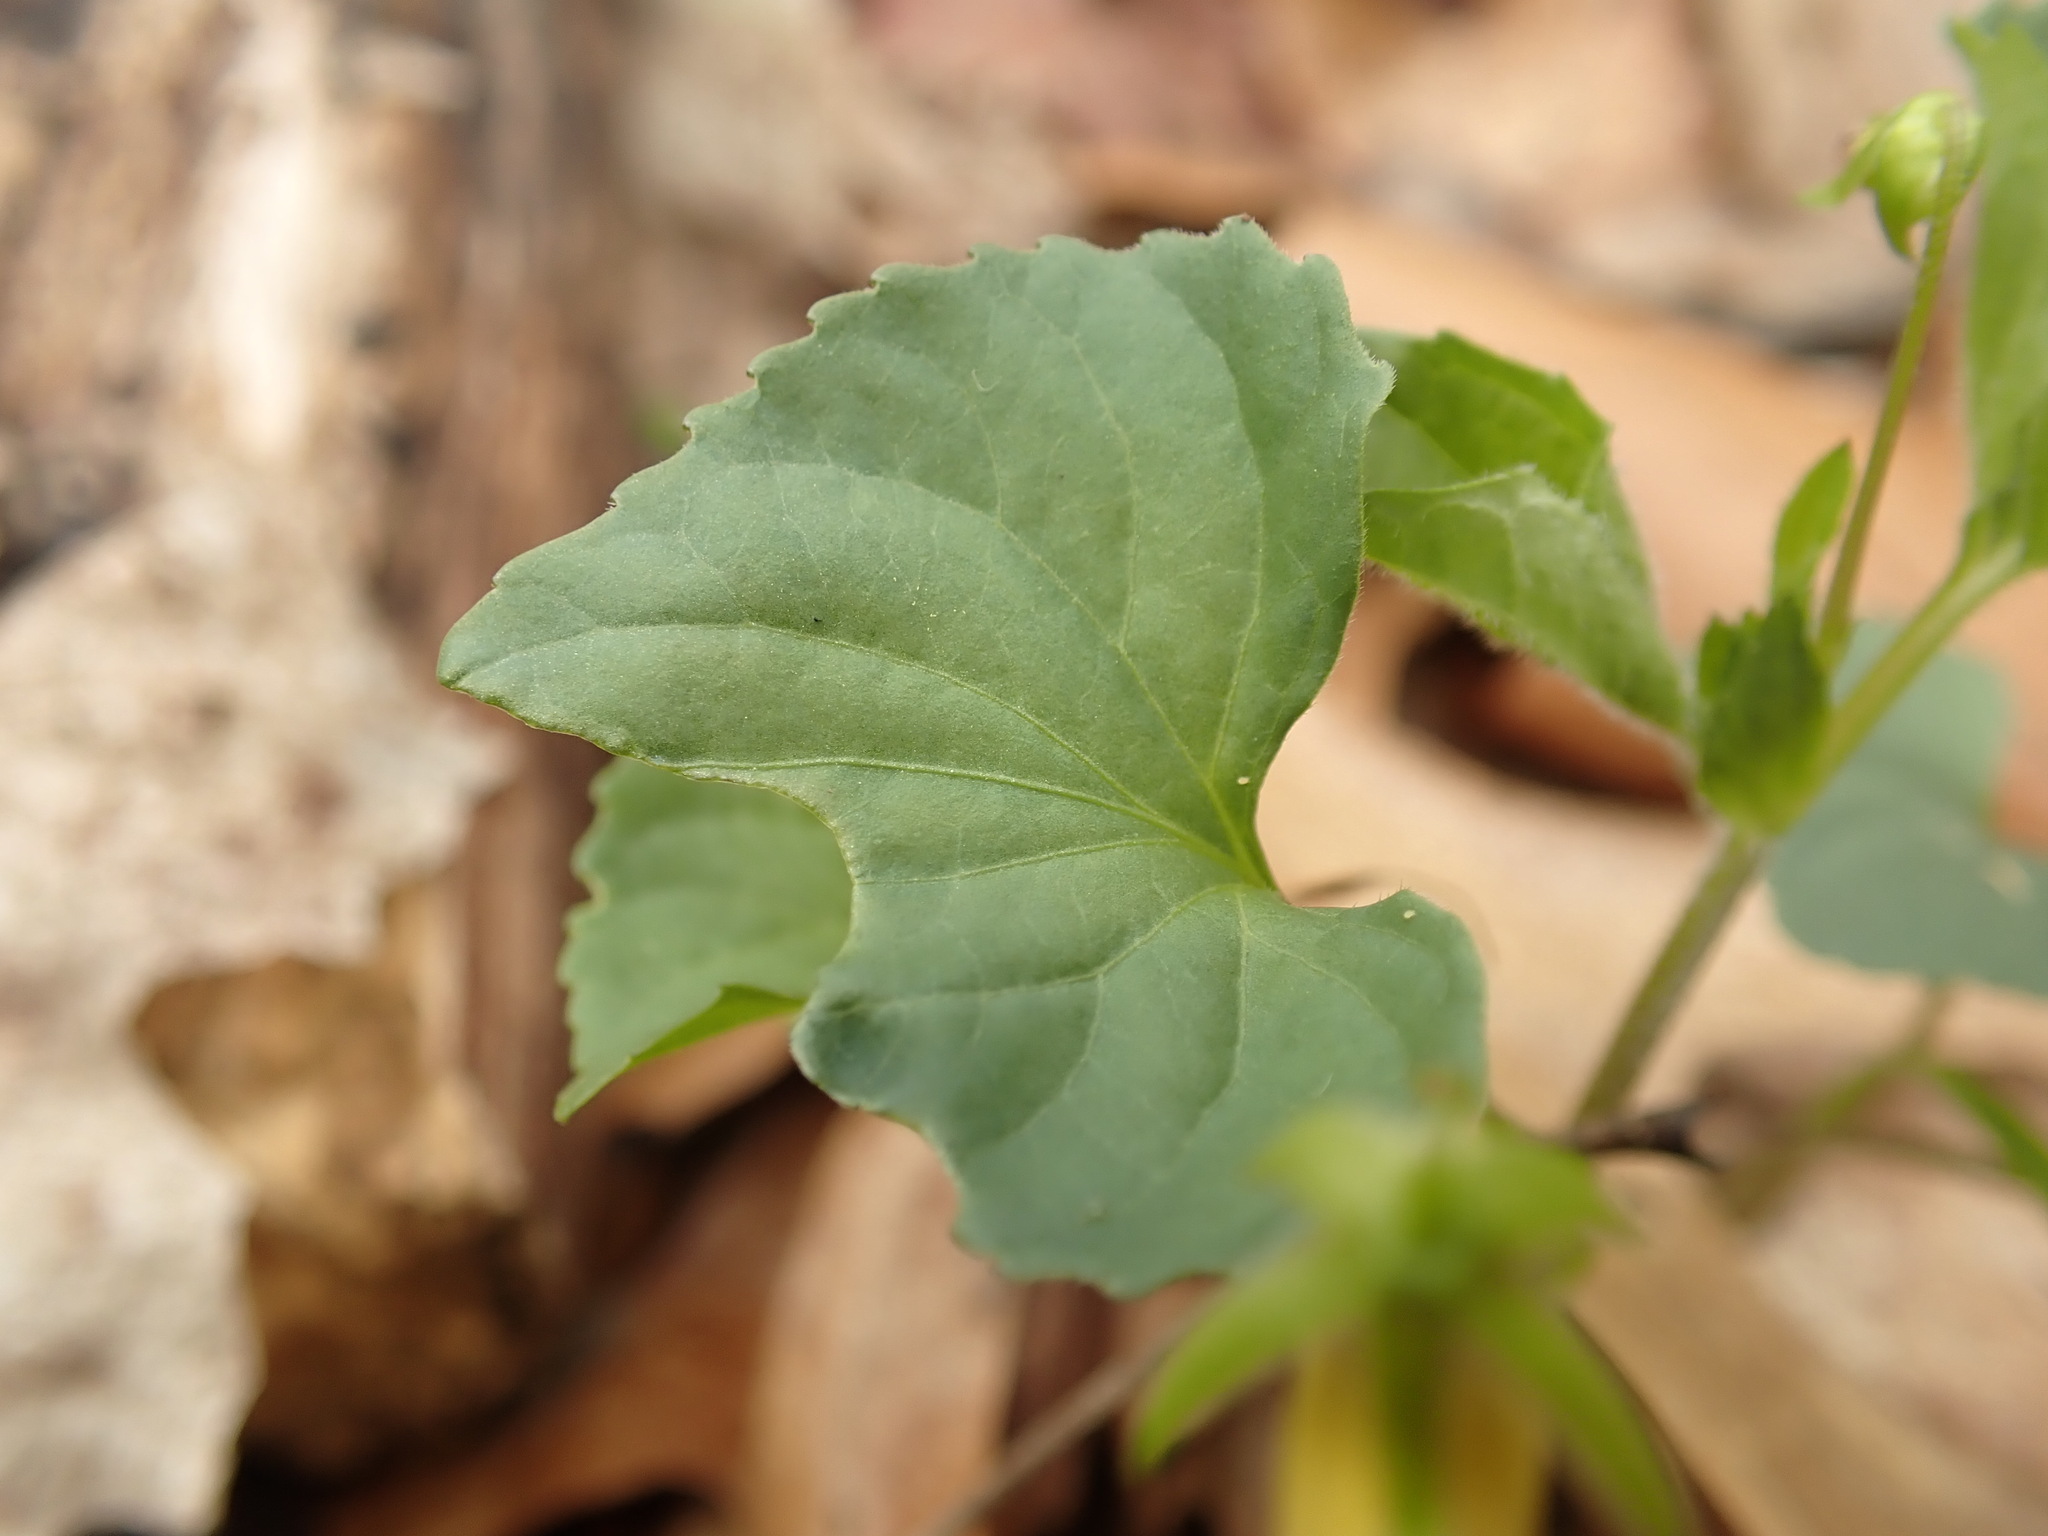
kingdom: Plantae
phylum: Tracheophyta
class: Magnoliopsida
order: Malpighiales
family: Violaceae
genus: Viola
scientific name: Viola eriocarpa
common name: Smooth yellow violet
